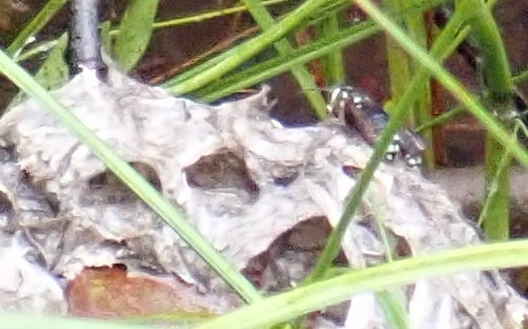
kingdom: Animalia
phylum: Arthropoda
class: Insecta
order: Hymenoptera
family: Vespidae
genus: Dolichovespula
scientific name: Dolichovespula maculata
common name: Bald-faced hornet
